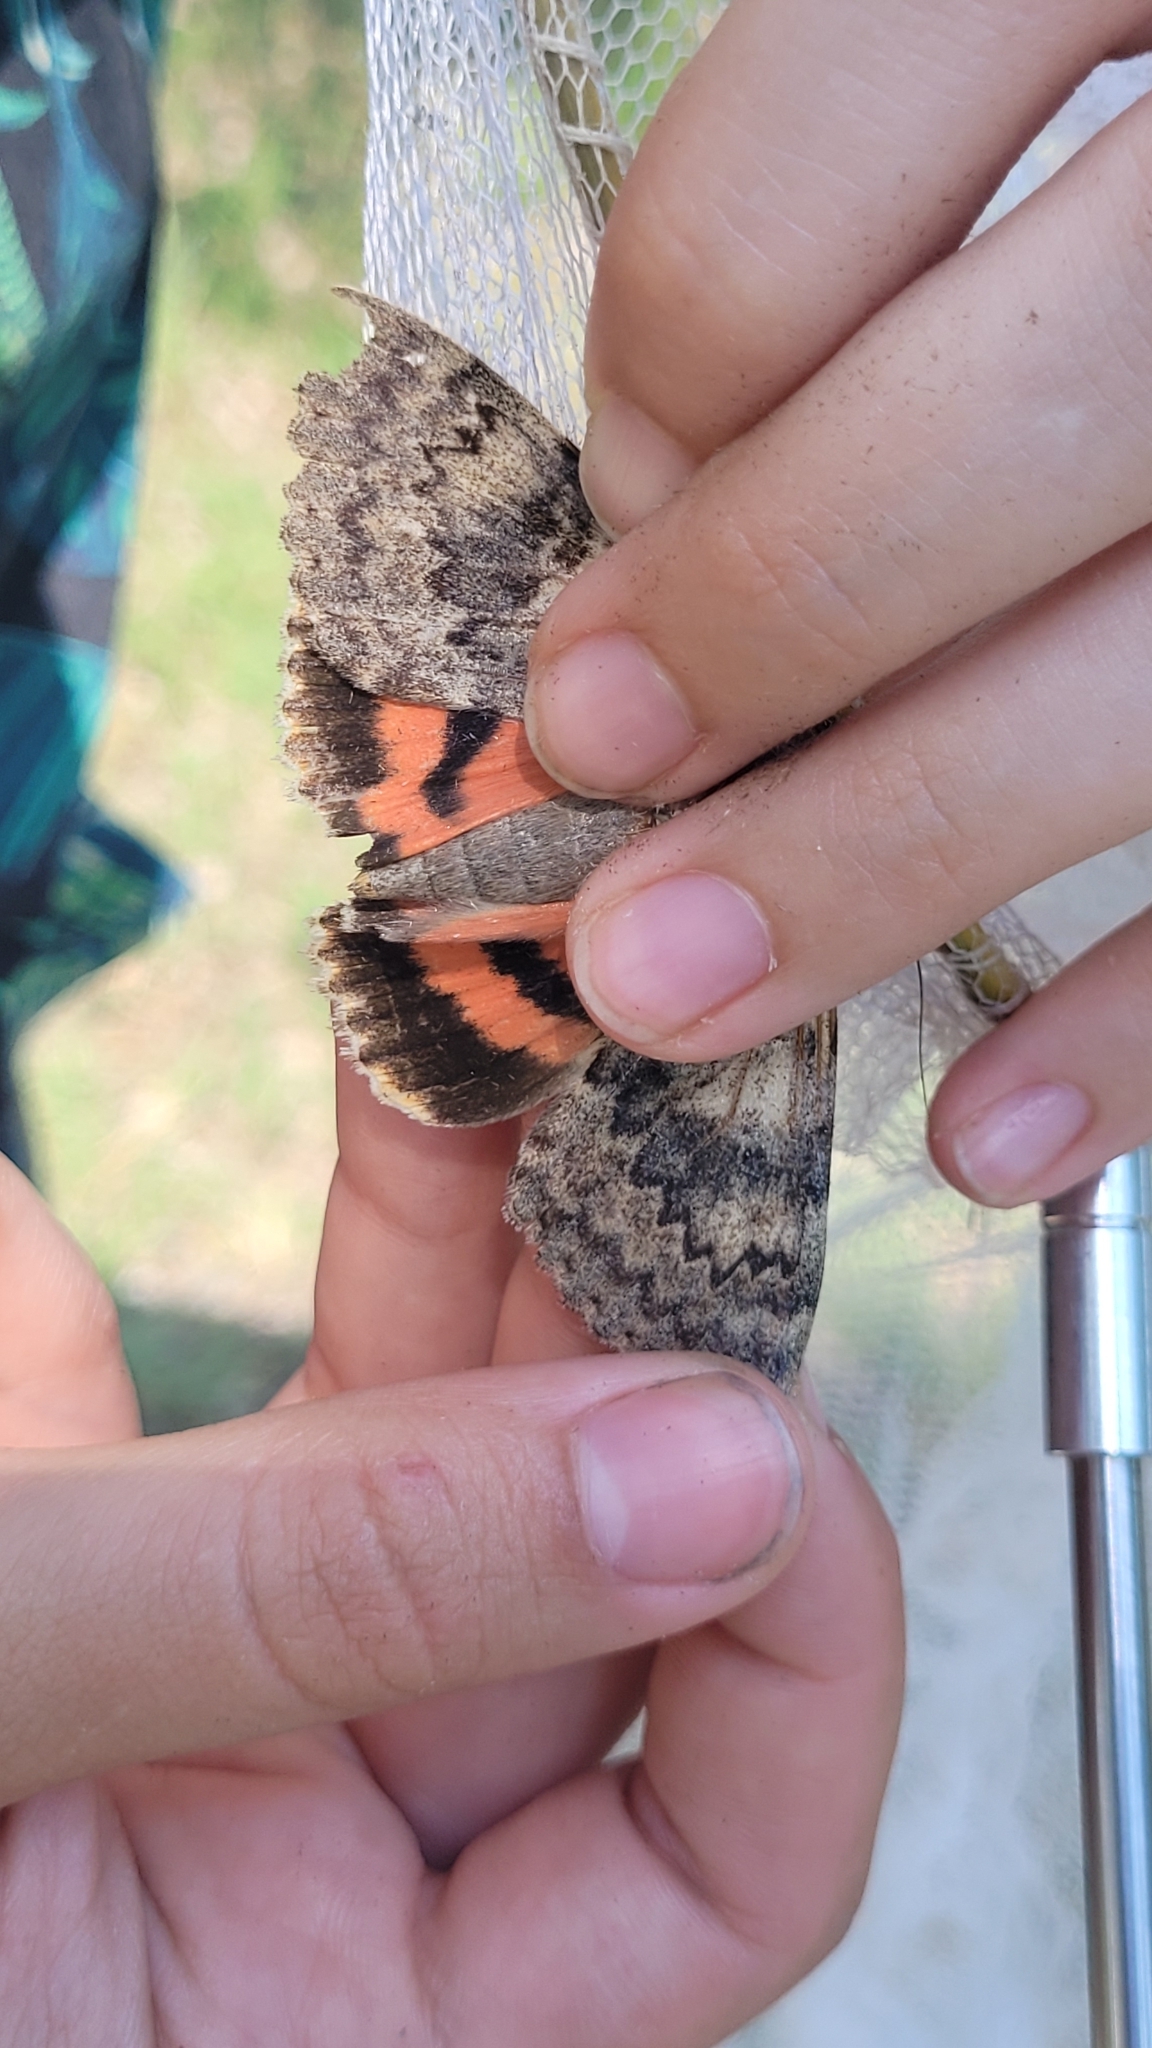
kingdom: Animalia
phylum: Arthropoda
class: Insecta
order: Lepidoptera
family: Erebidae
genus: Catocala
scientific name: Catocala deducta
